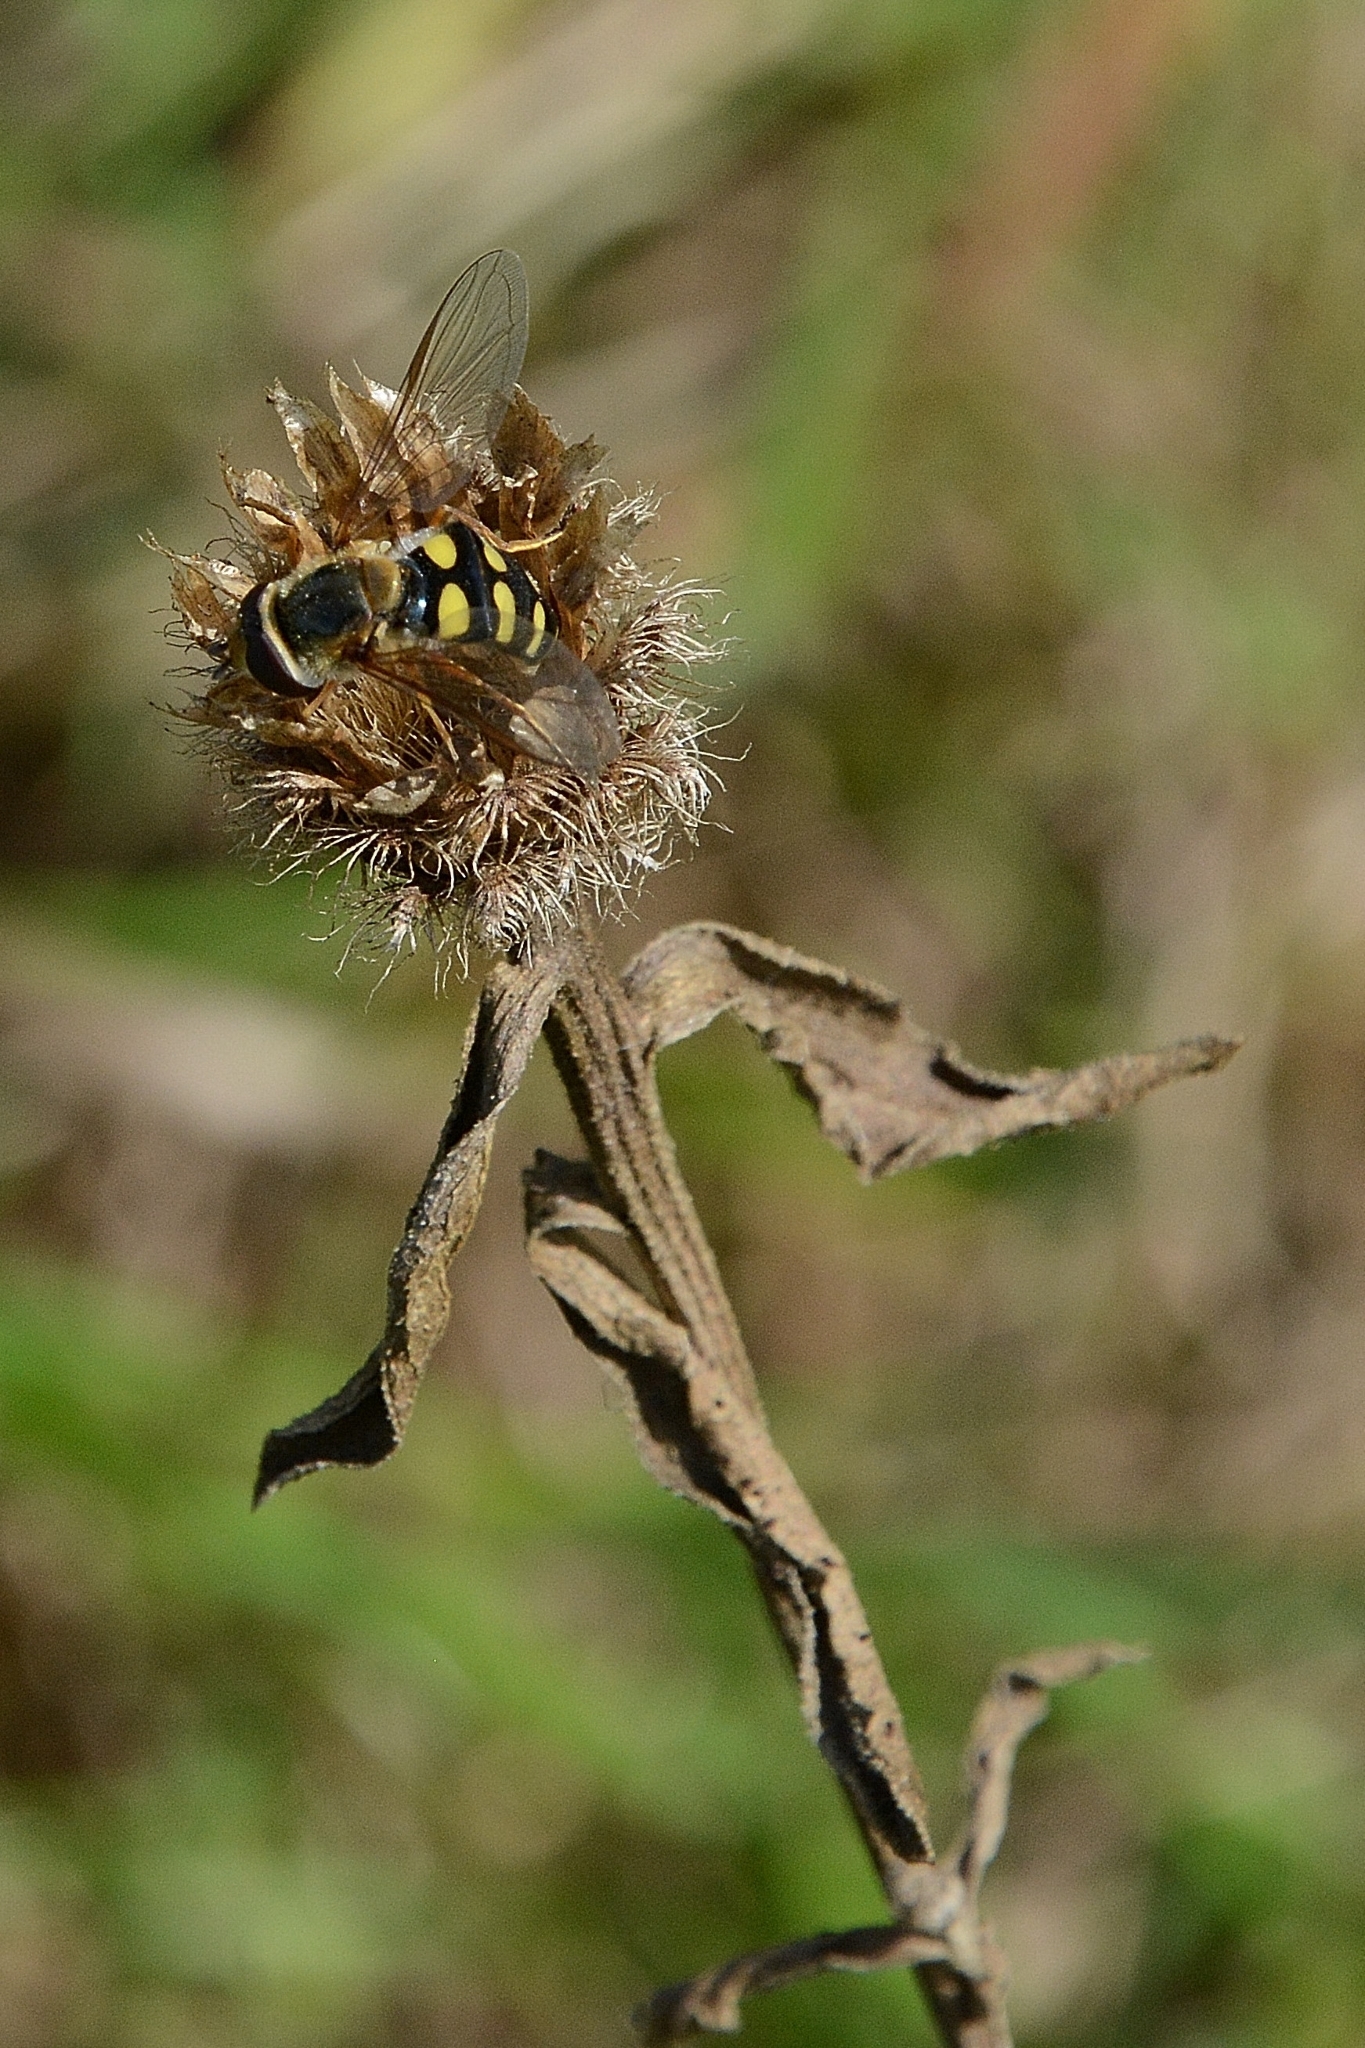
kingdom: Animalia
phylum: Arthropoda
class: Insecta
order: Diptera
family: Syrphidae
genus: Eupeodes
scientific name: Eupeodes luniger
